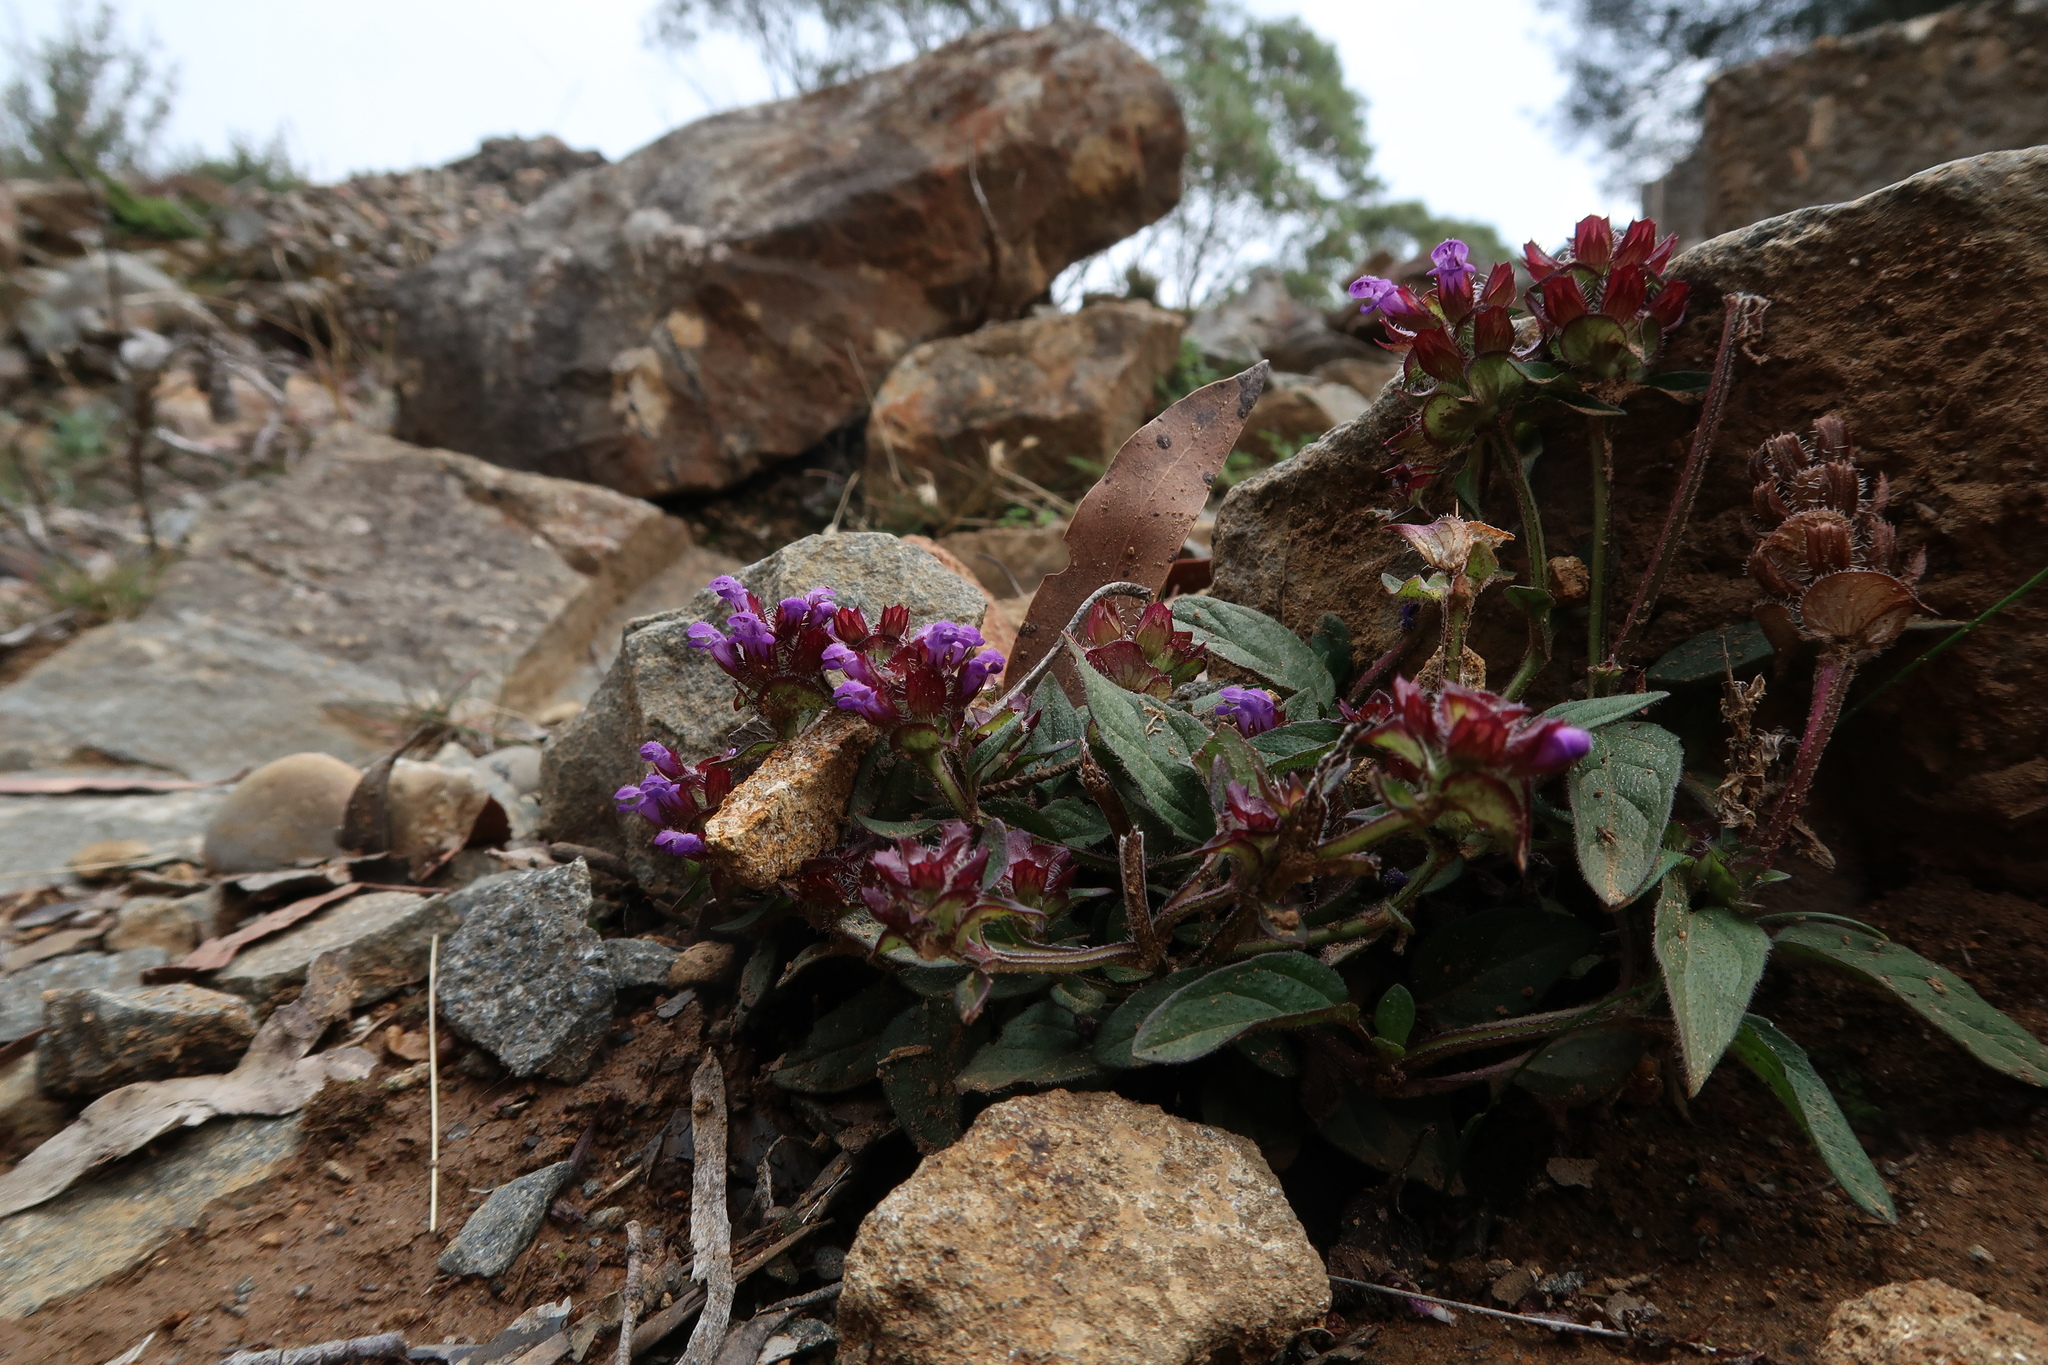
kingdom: Plantae
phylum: Tracheophyta
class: Magnoliopsida
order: Lamiales
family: Lamiaceae
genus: Prunella
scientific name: Prunella vulgaris
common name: Heal-all
